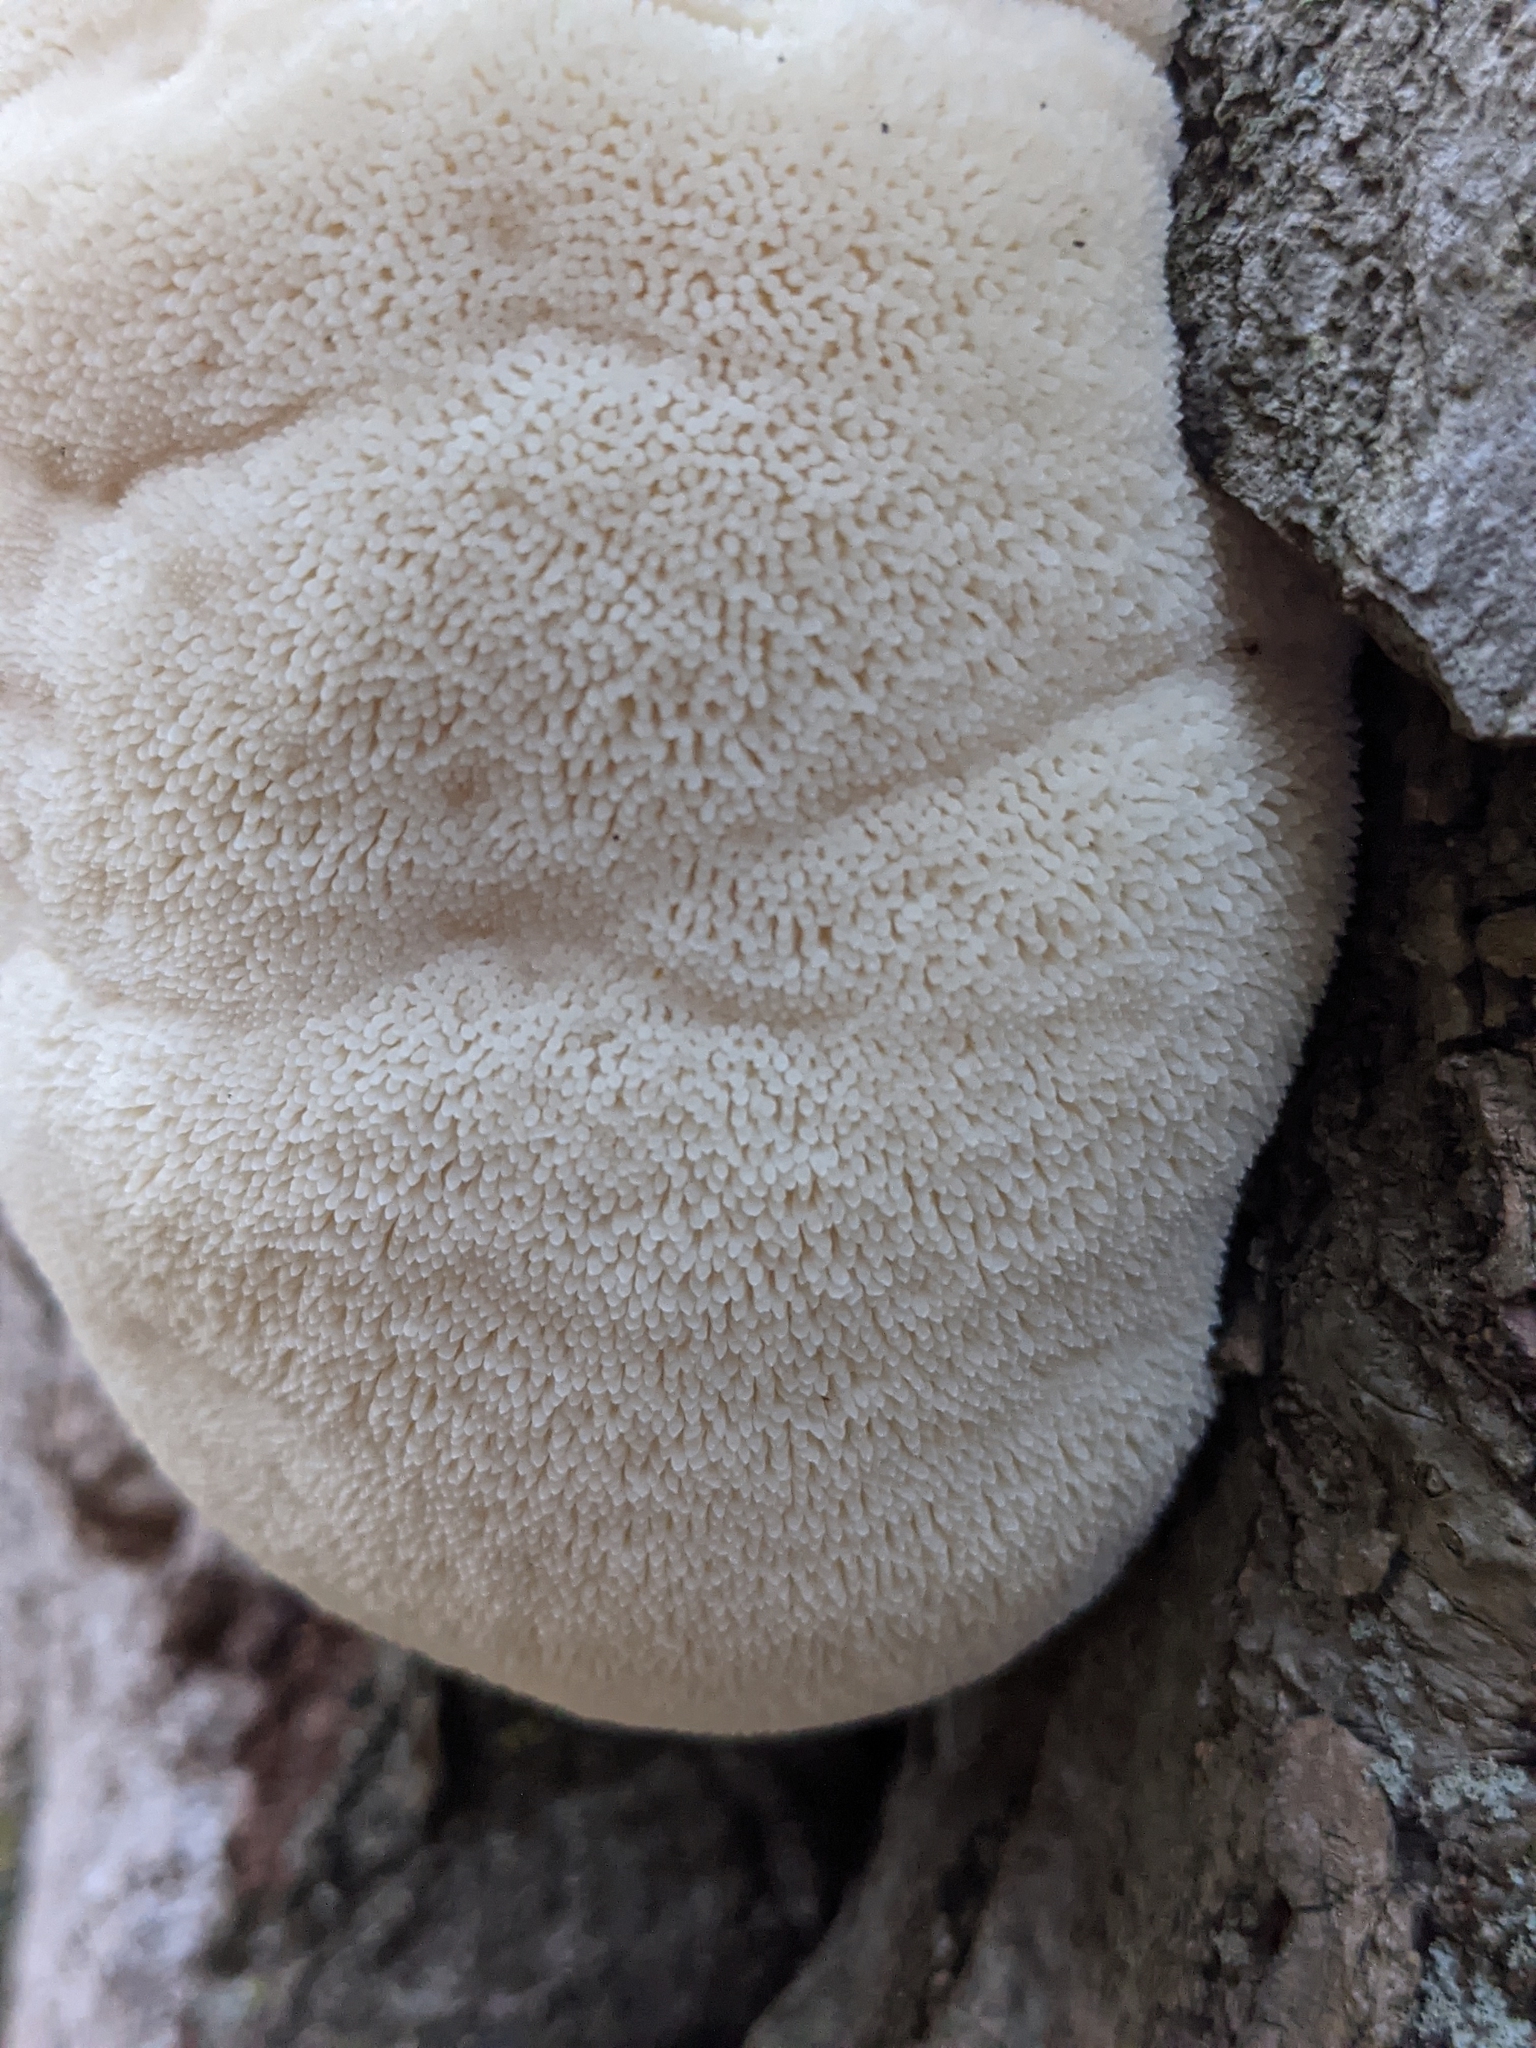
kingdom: Fungi
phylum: Basidiomycota
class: Agaricomycetes
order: Russulales
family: Hericiaceae
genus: Hericium
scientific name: Hericium erinaceus
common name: Bearded tooth
